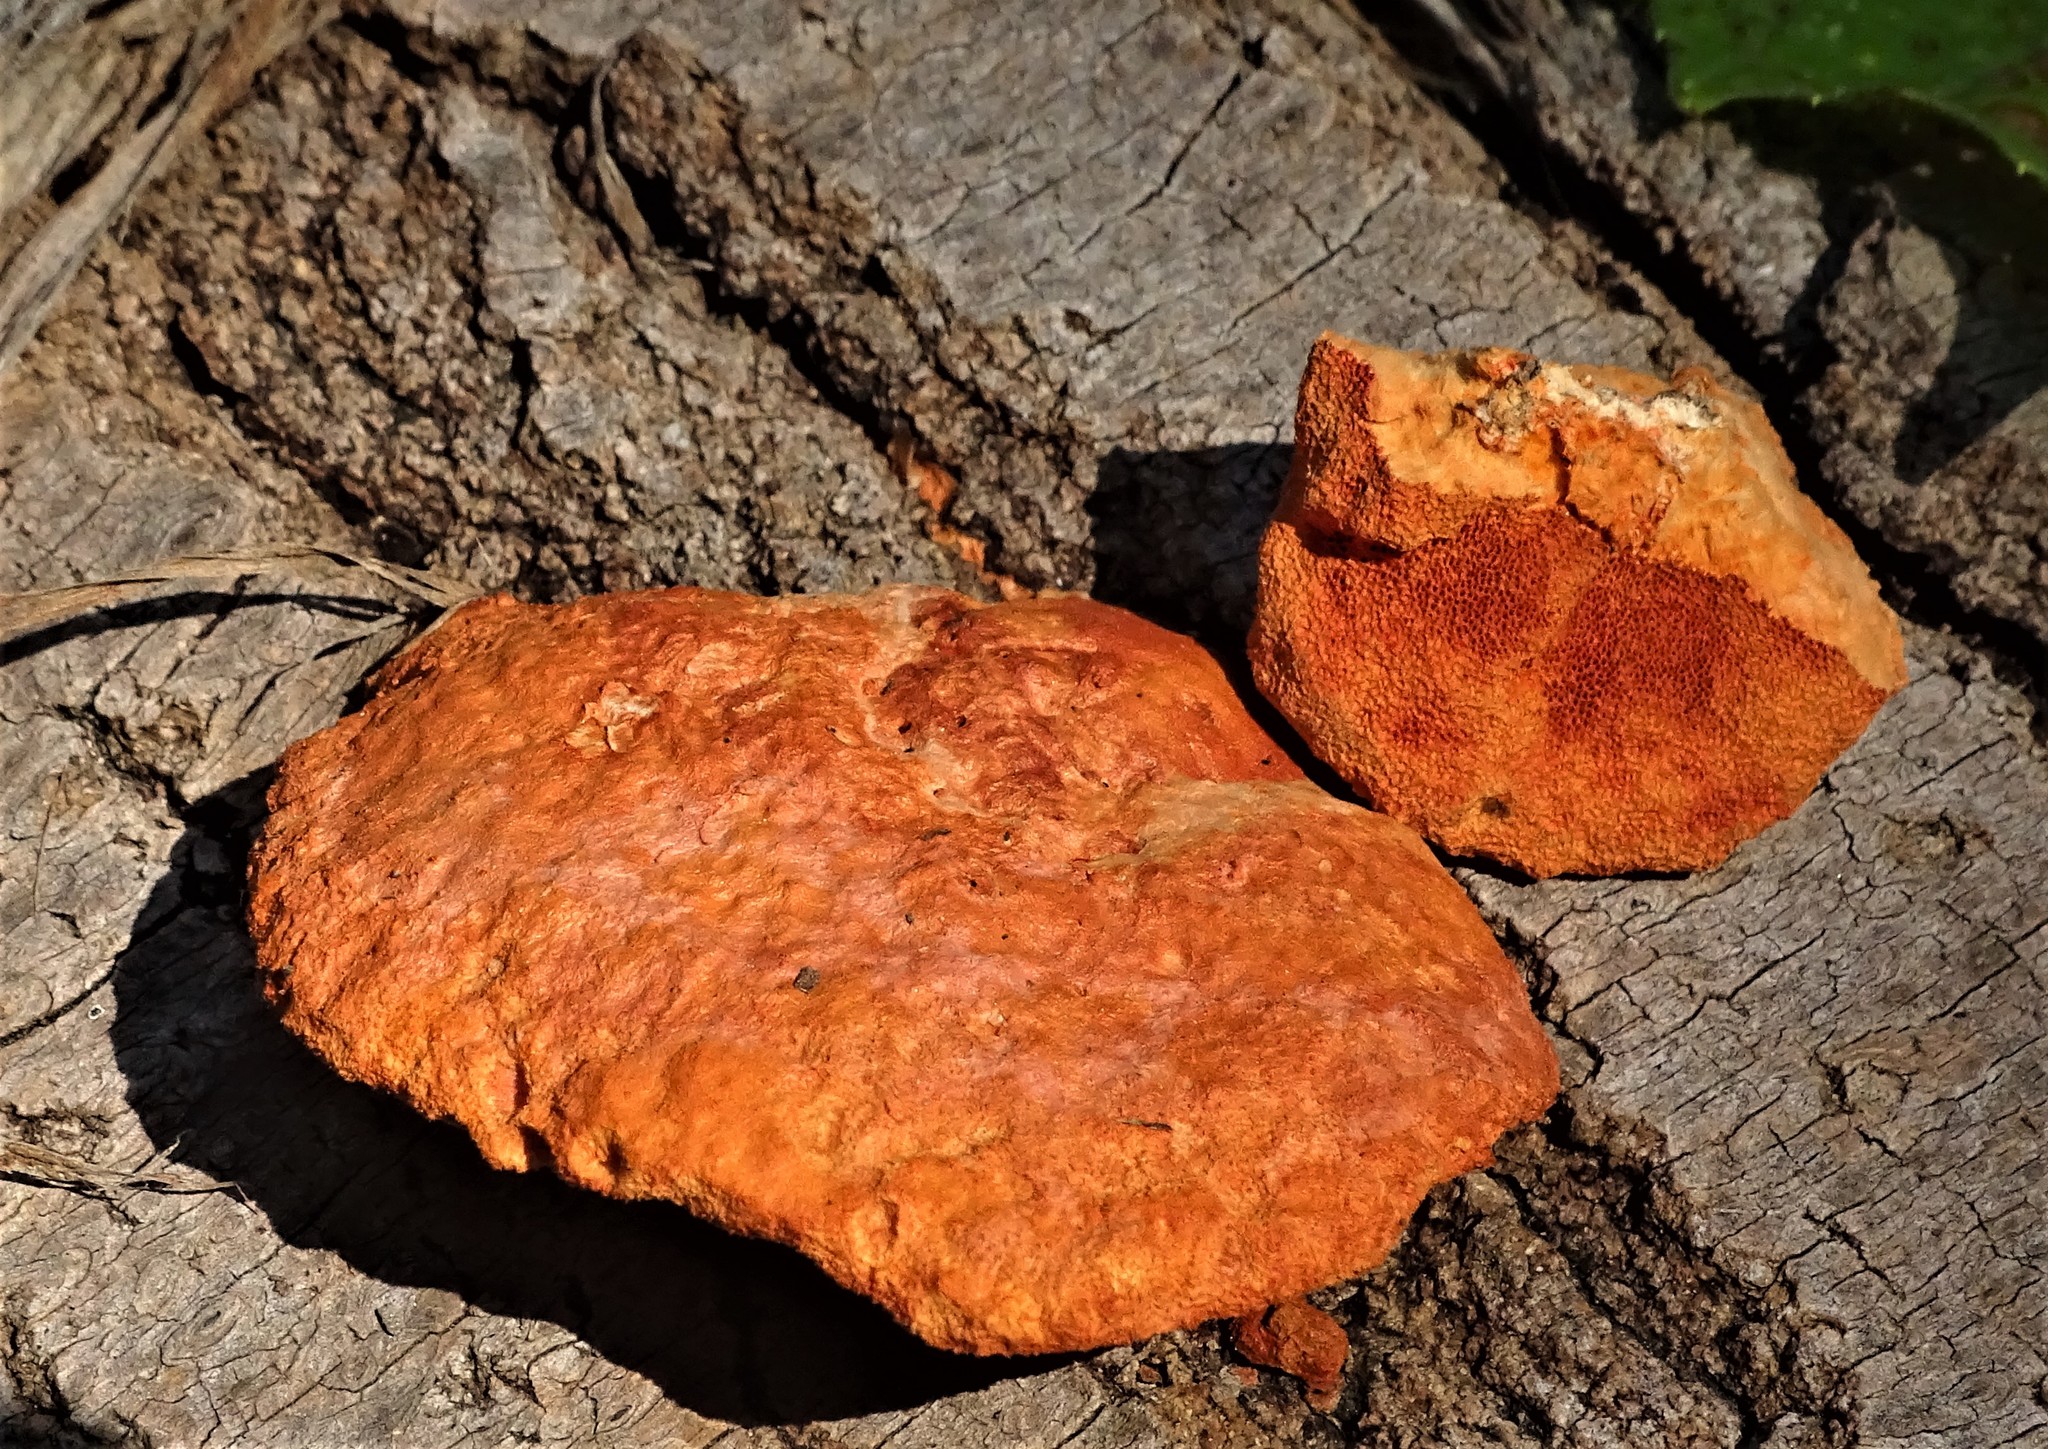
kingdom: Fungi
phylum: Basidiomycota
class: Agaricomycetes
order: Polyporales
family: Polyporaceae
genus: Trametes
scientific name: Trametes cinnabarina
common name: Northern cinnabar polypore
